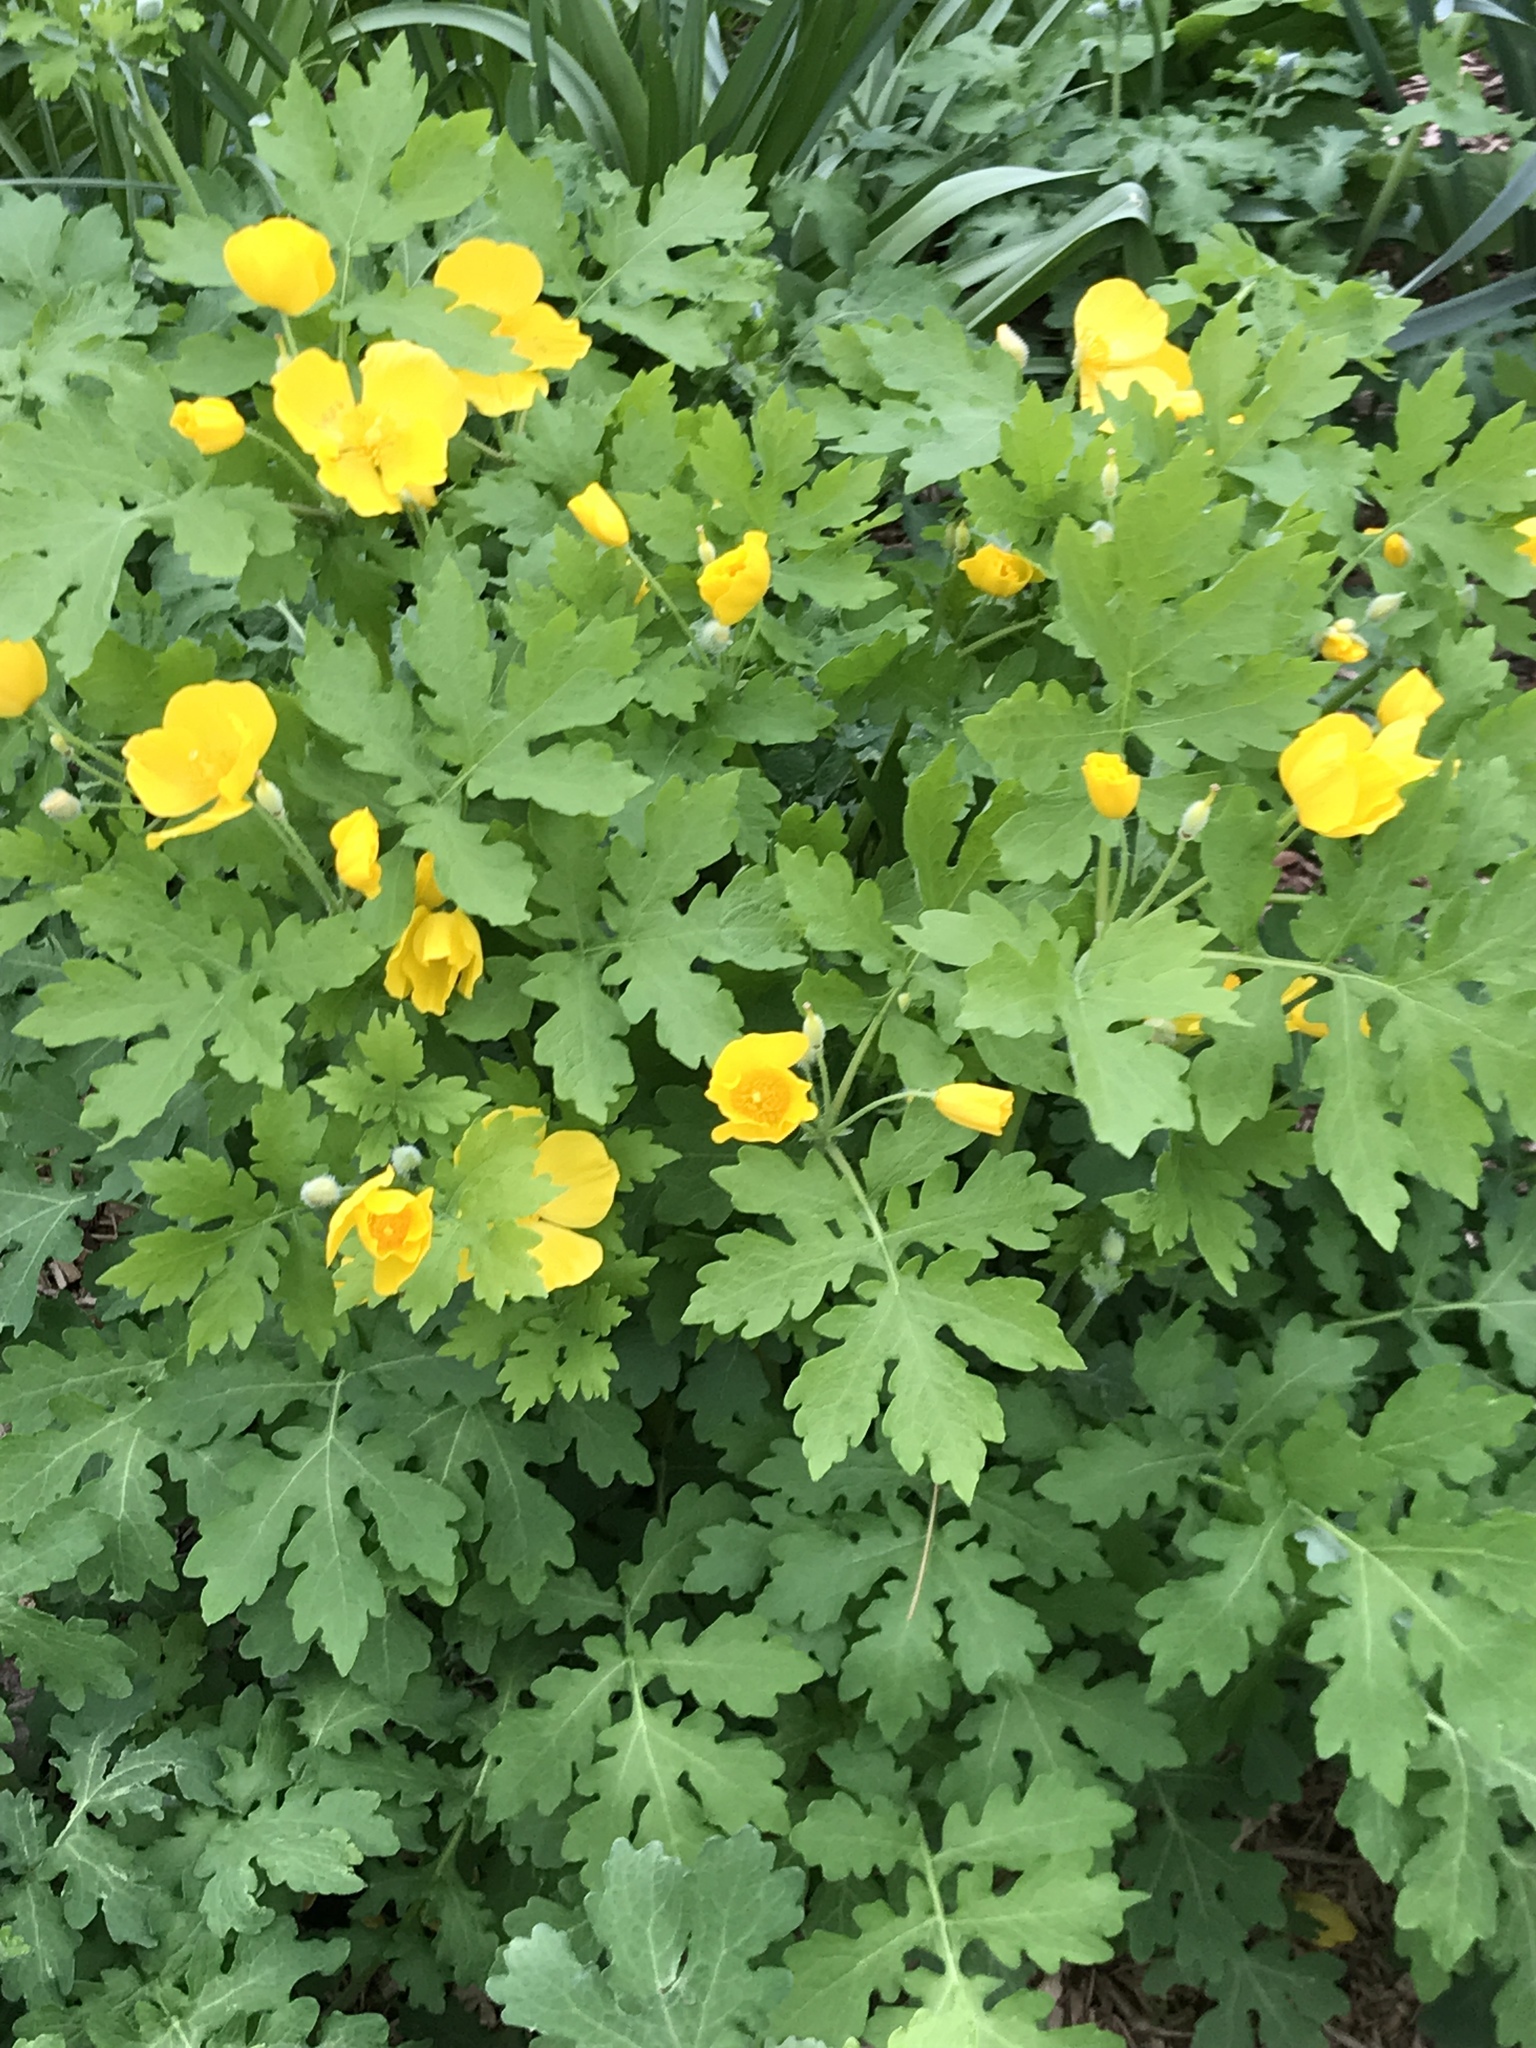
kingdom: Plantae
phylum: Tracheophyta
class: Magnoliopsida
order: Ranunculales
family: Papaveraceae
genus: Stylophorum
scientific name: Stylophorum diphyllum
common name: Celandine poppy
